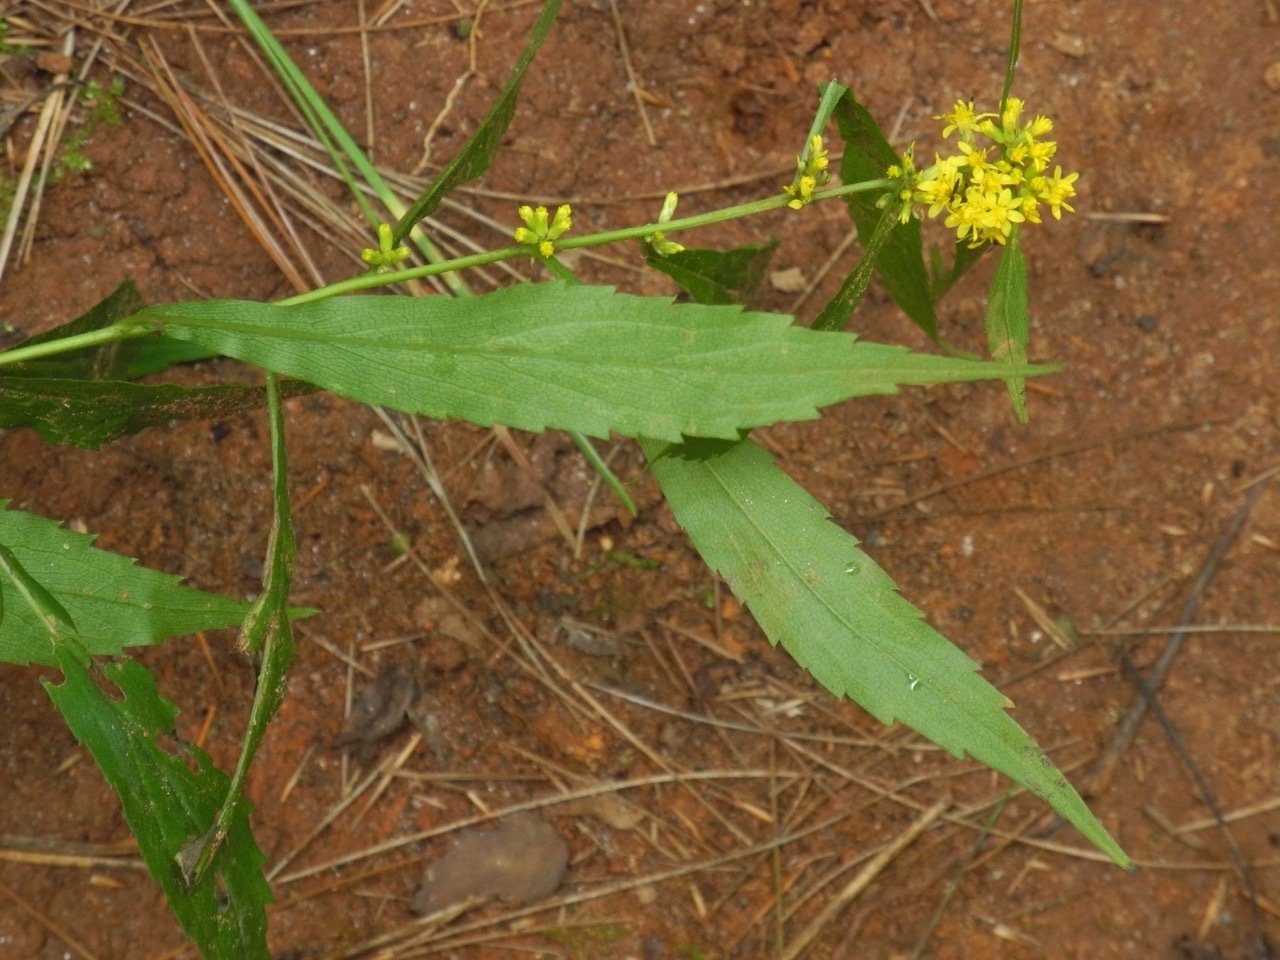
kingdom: Plantae
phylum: Tracheophyta
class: Magnoliopsida
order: Asterales
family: Asteraceae
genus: Solidago
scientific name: Solidago caesia
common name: Woodland goldenrod
